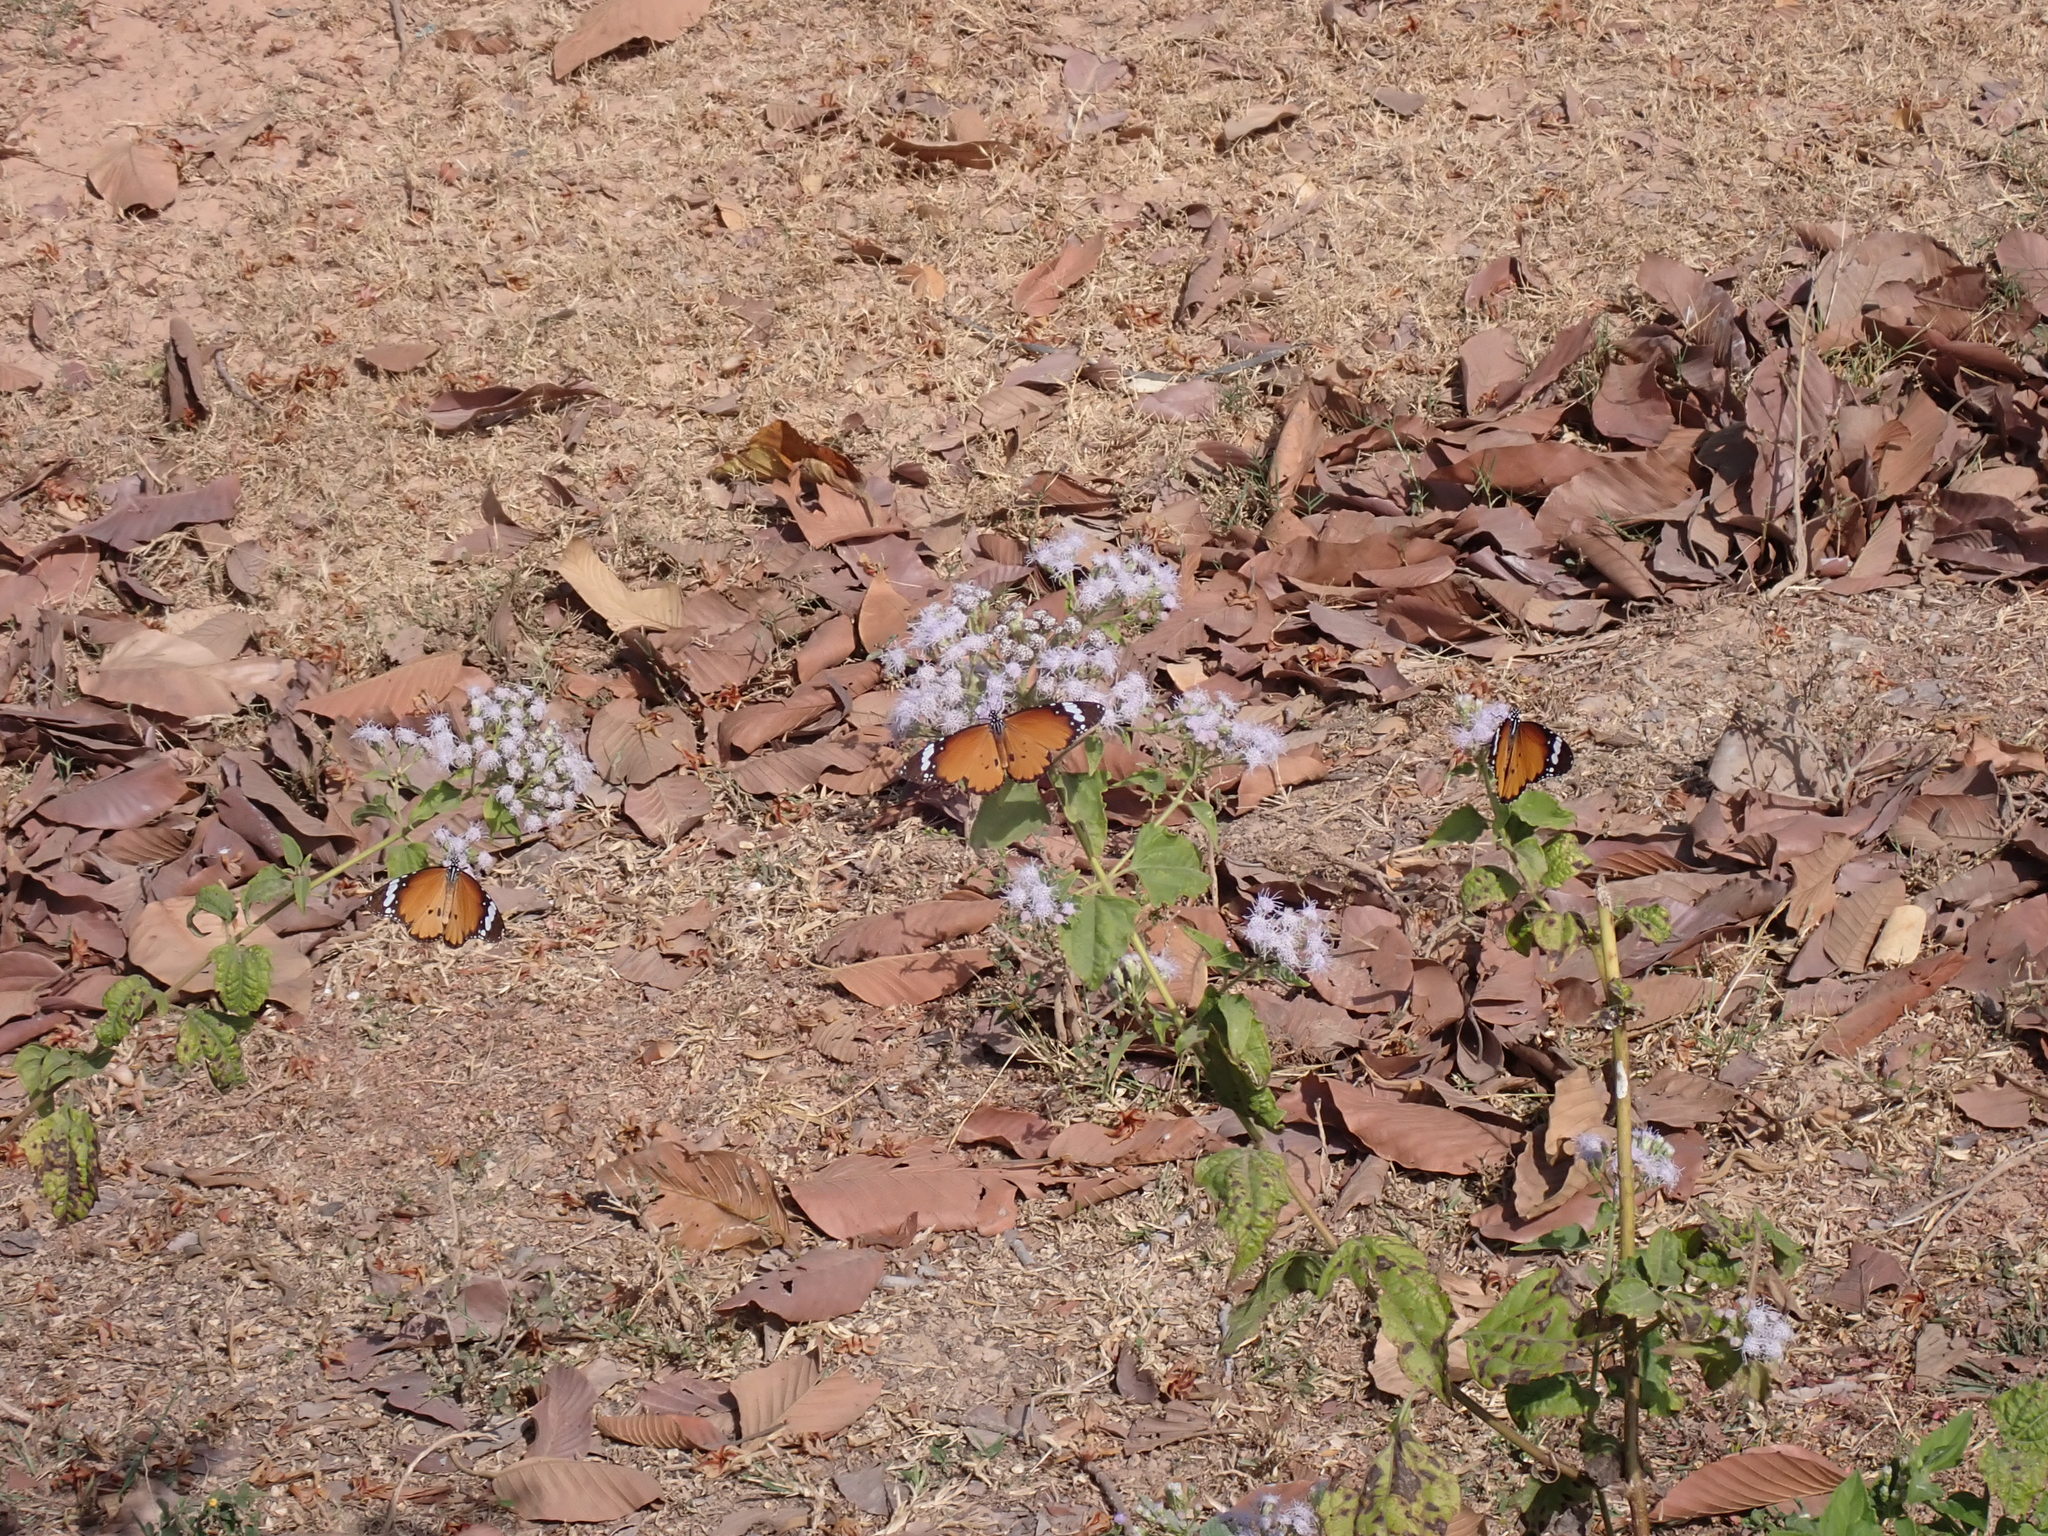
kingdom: Animalia
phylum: Arthropoda
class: Insecta
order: Lepidoptera
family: Nymphalidae
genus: Danaus
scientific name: Danaus chrysippus
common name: Plain tiger
